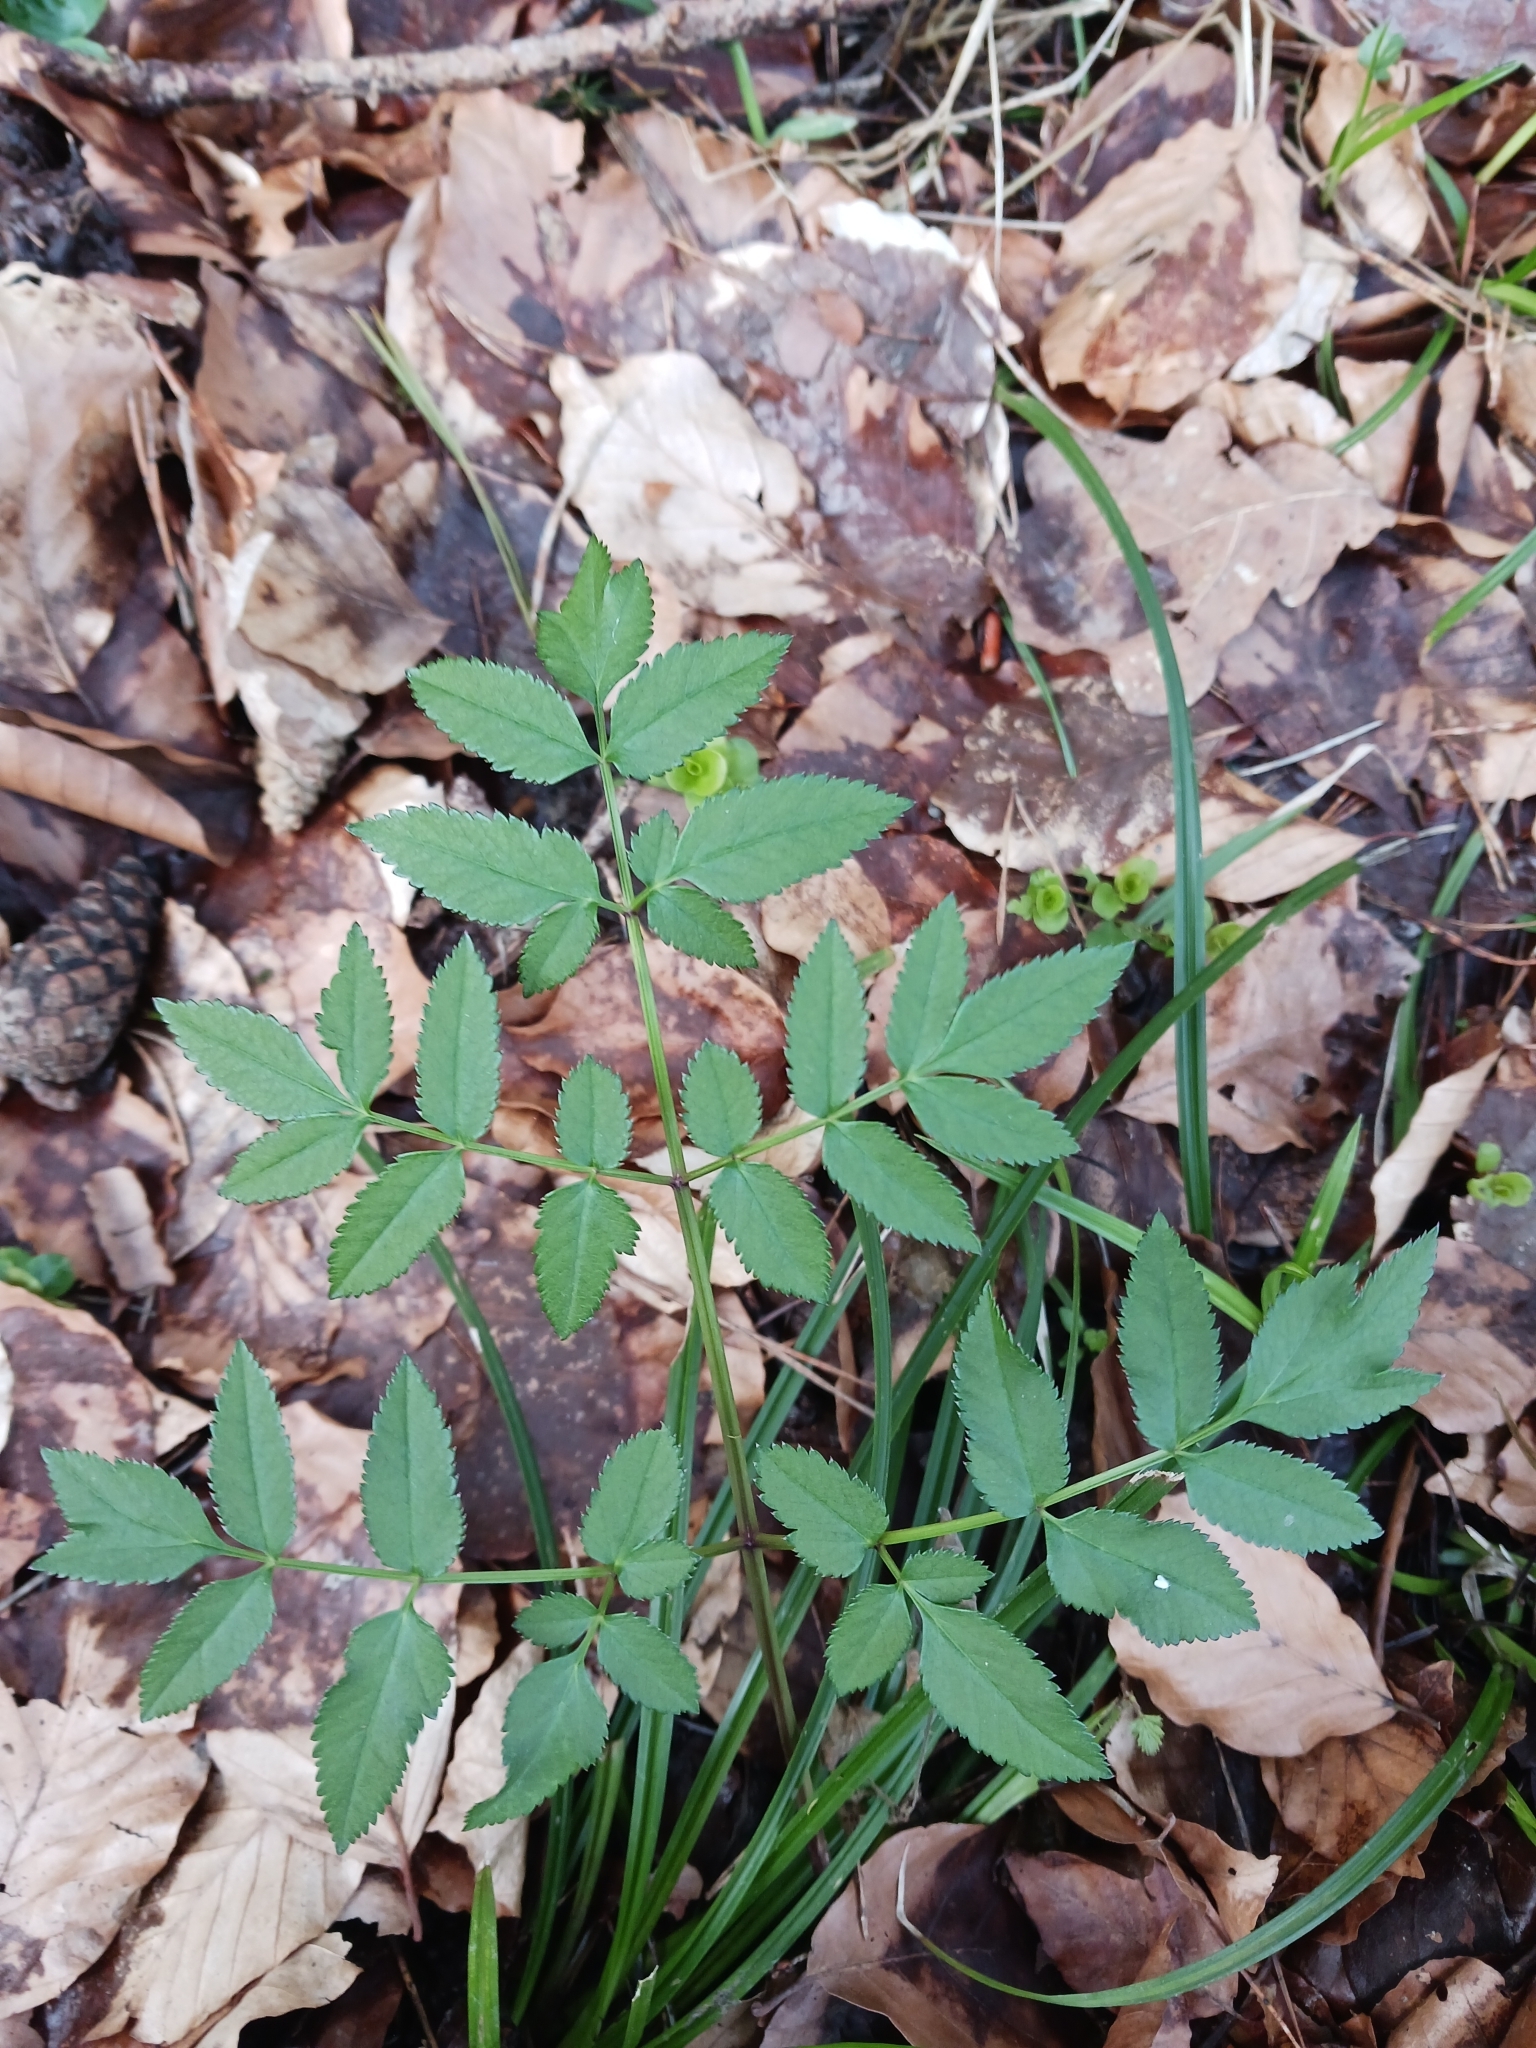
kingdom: Plantae
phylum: Tracheophyta
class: Magnoliopsida
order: Apiales
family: Apiaceae
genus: Angelica
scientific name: Angelica sylvestris
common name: Wild angelica
